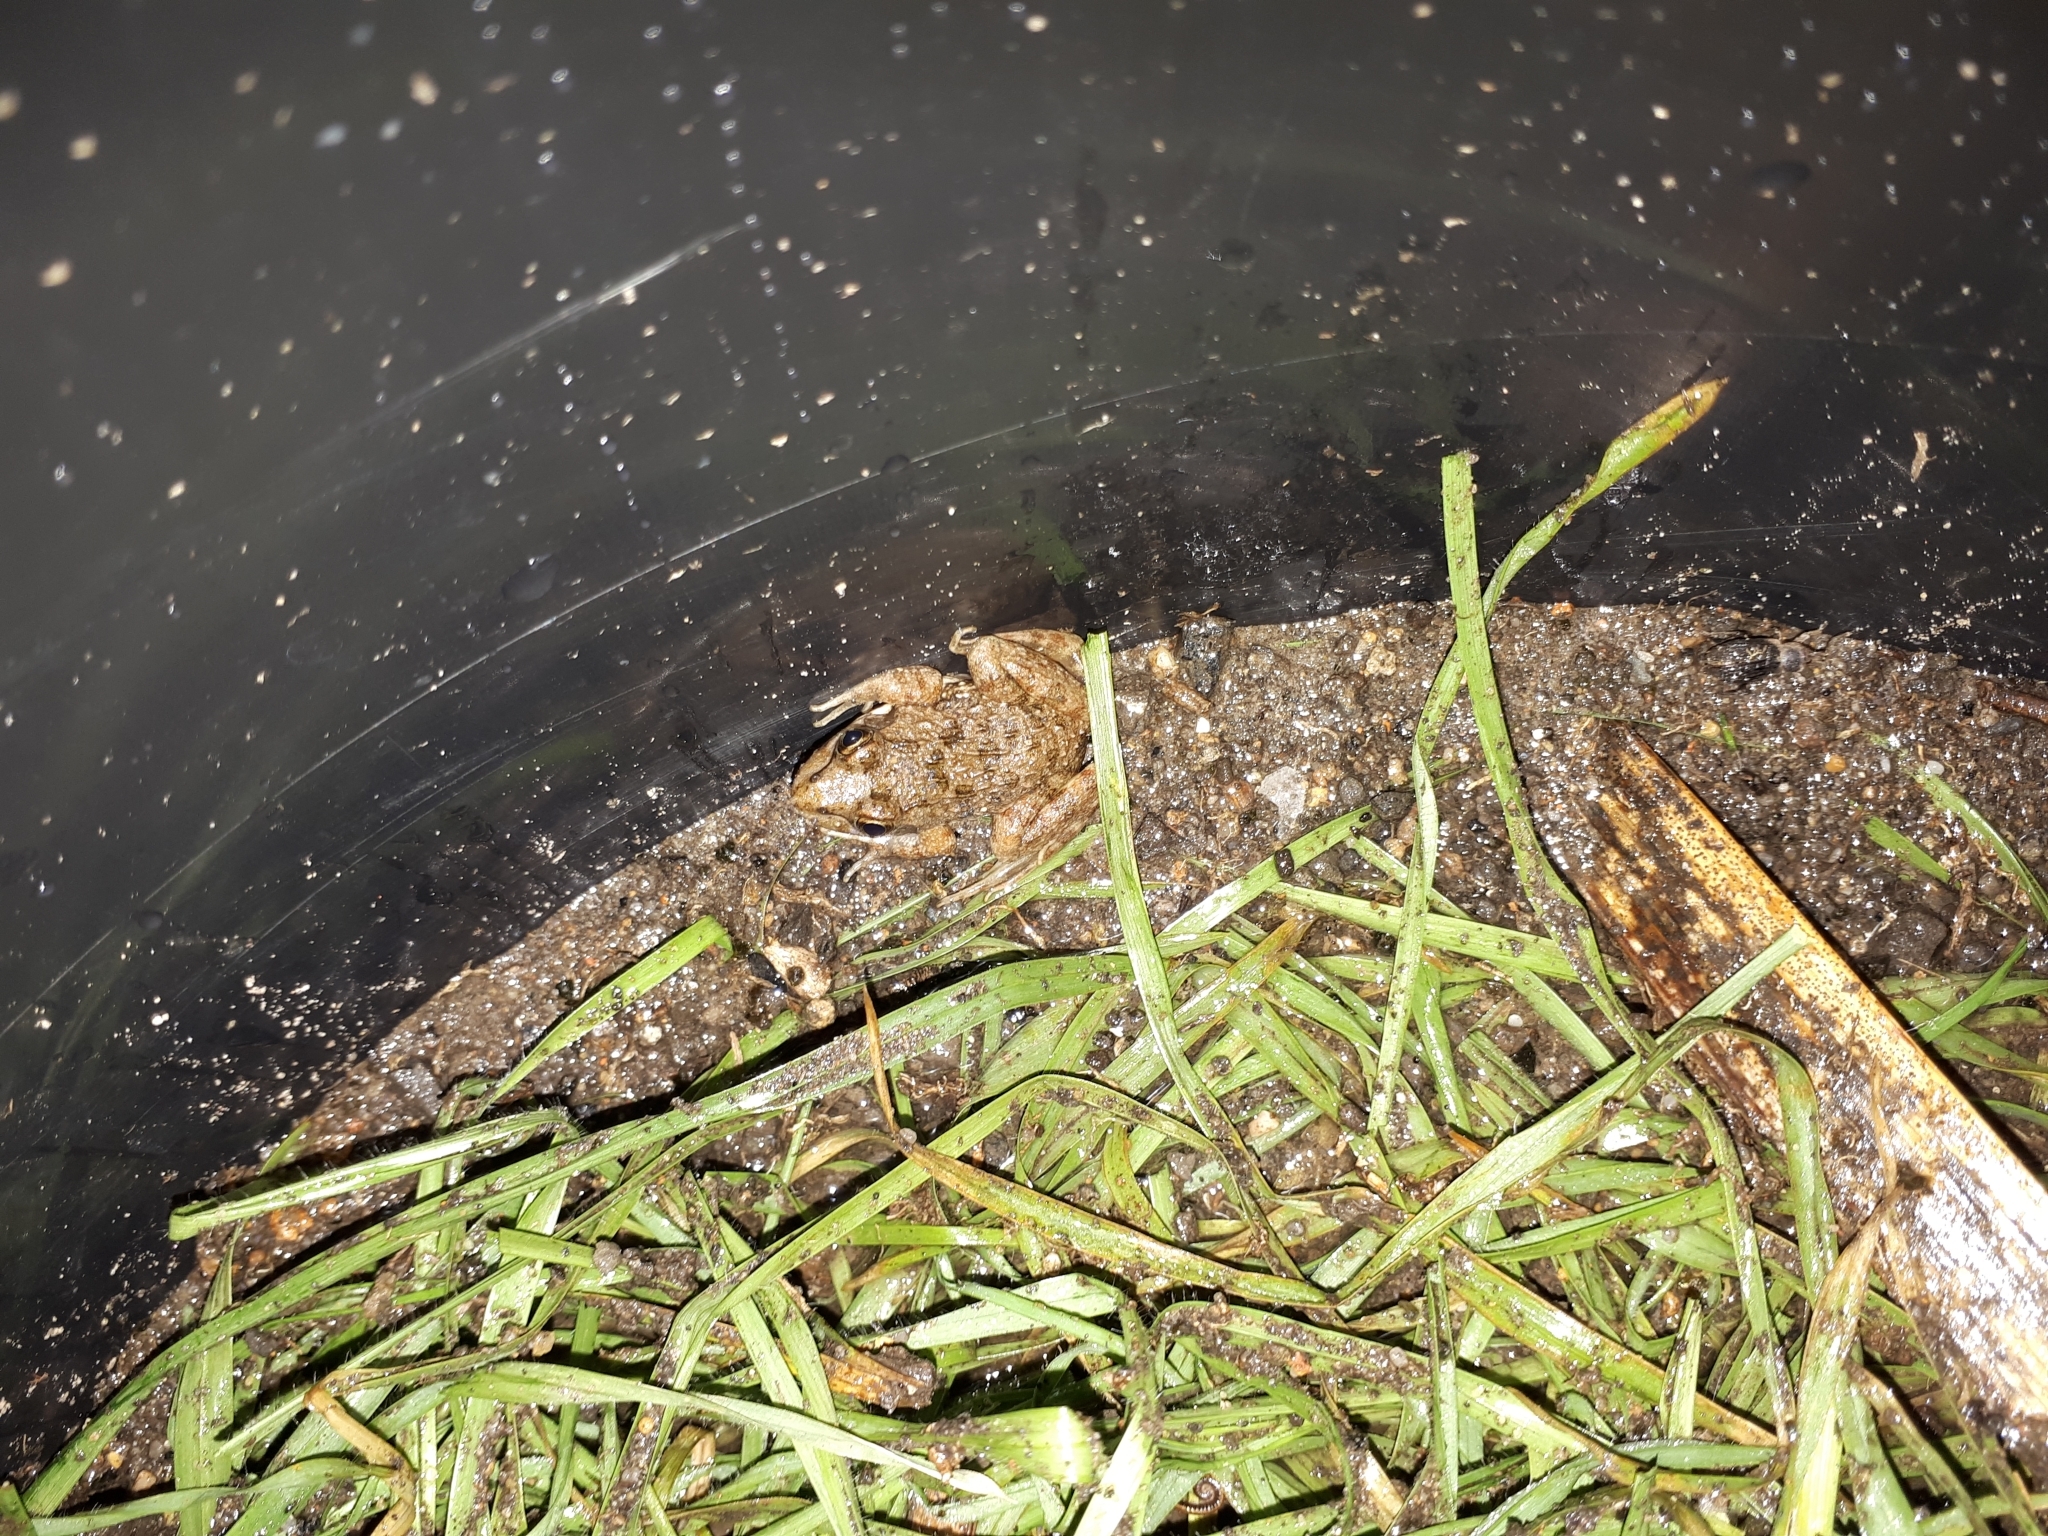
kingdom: Animalia
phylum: Chordata
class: Amphibia
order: Anura
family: Pyxicephalidae
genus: Amietia
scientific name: Amietia fuscigula
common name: Cape rana
